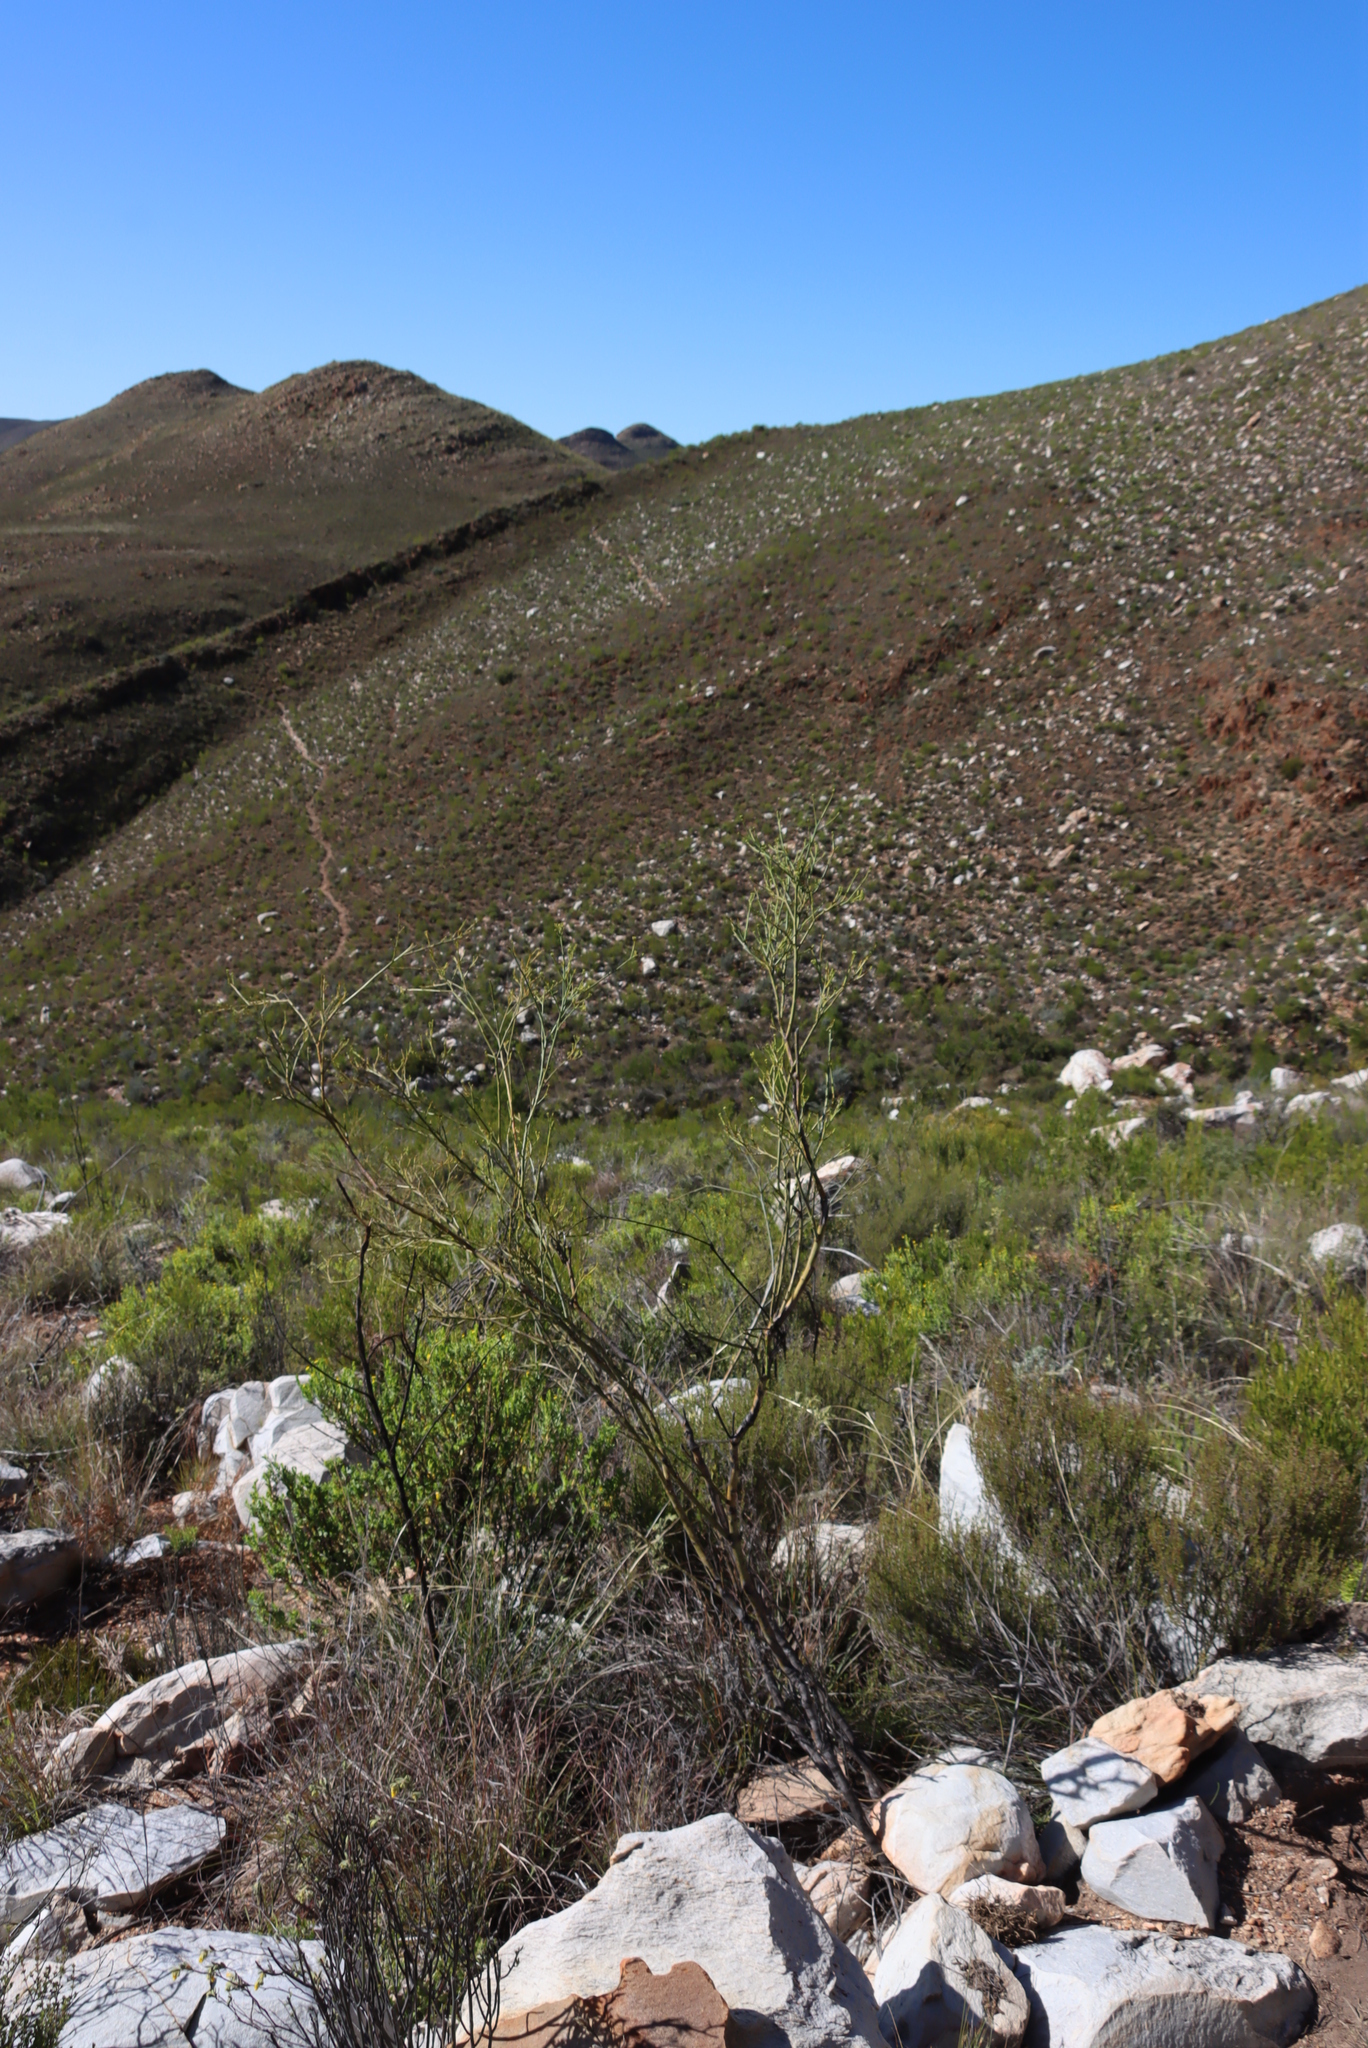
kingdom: Plantae
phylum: Tracheophyta
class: Magnoliopsida
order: Santalales
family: Thesiaceae
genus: Thesium
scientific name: Thesium strictum
